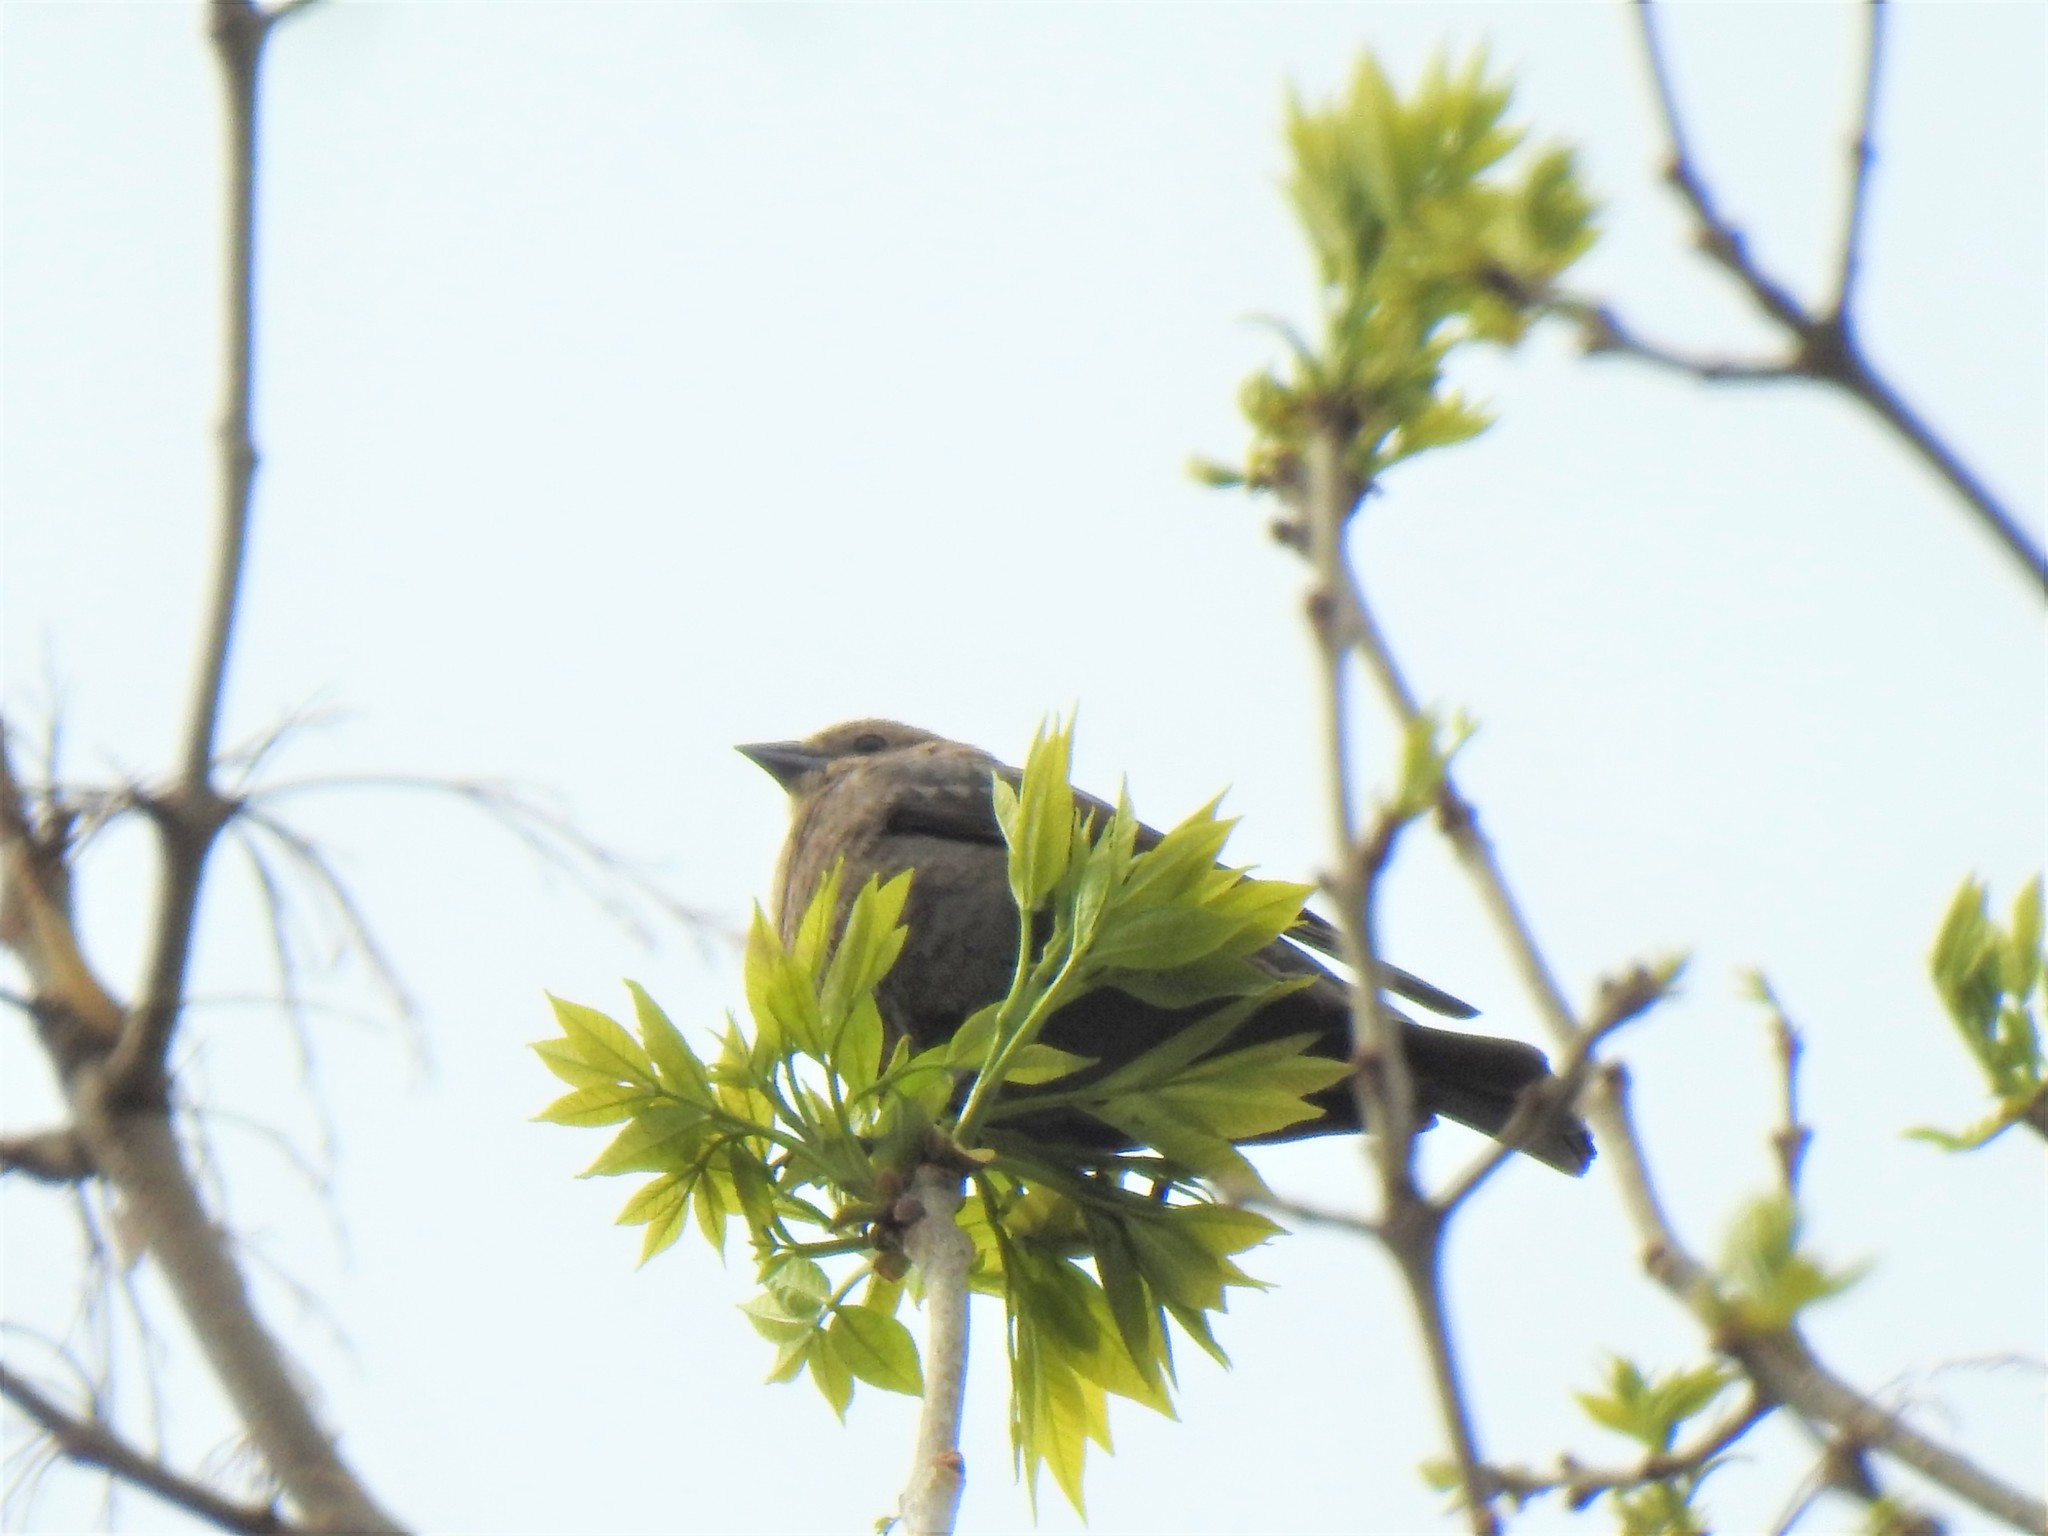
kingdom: Animalia
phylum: Chordata
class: Aves
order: Passeriformes
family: Icteridae
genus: Molothrus
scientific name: Molothrus ater
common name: Brown-headed cowbird
